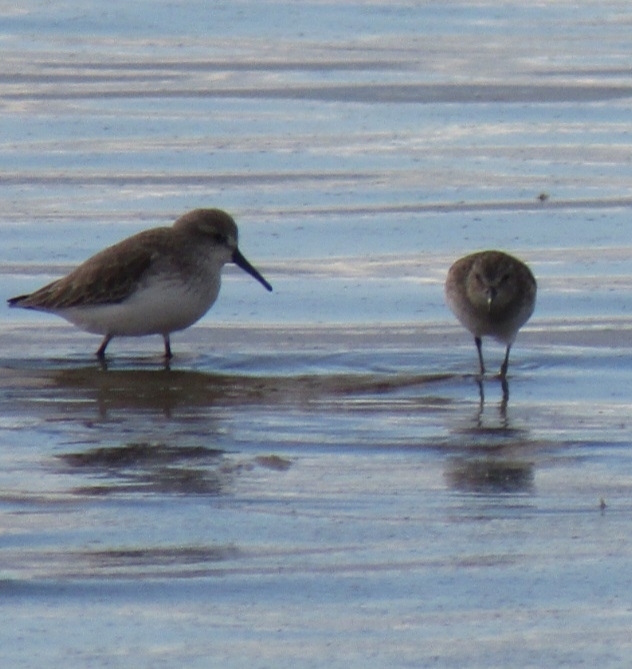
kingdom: Animalia
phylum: Chordata
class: Aves
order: Charadriiformes
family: Scolopacidae
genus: Calidris
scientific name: Calidris mauri
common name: Western sandpiper
